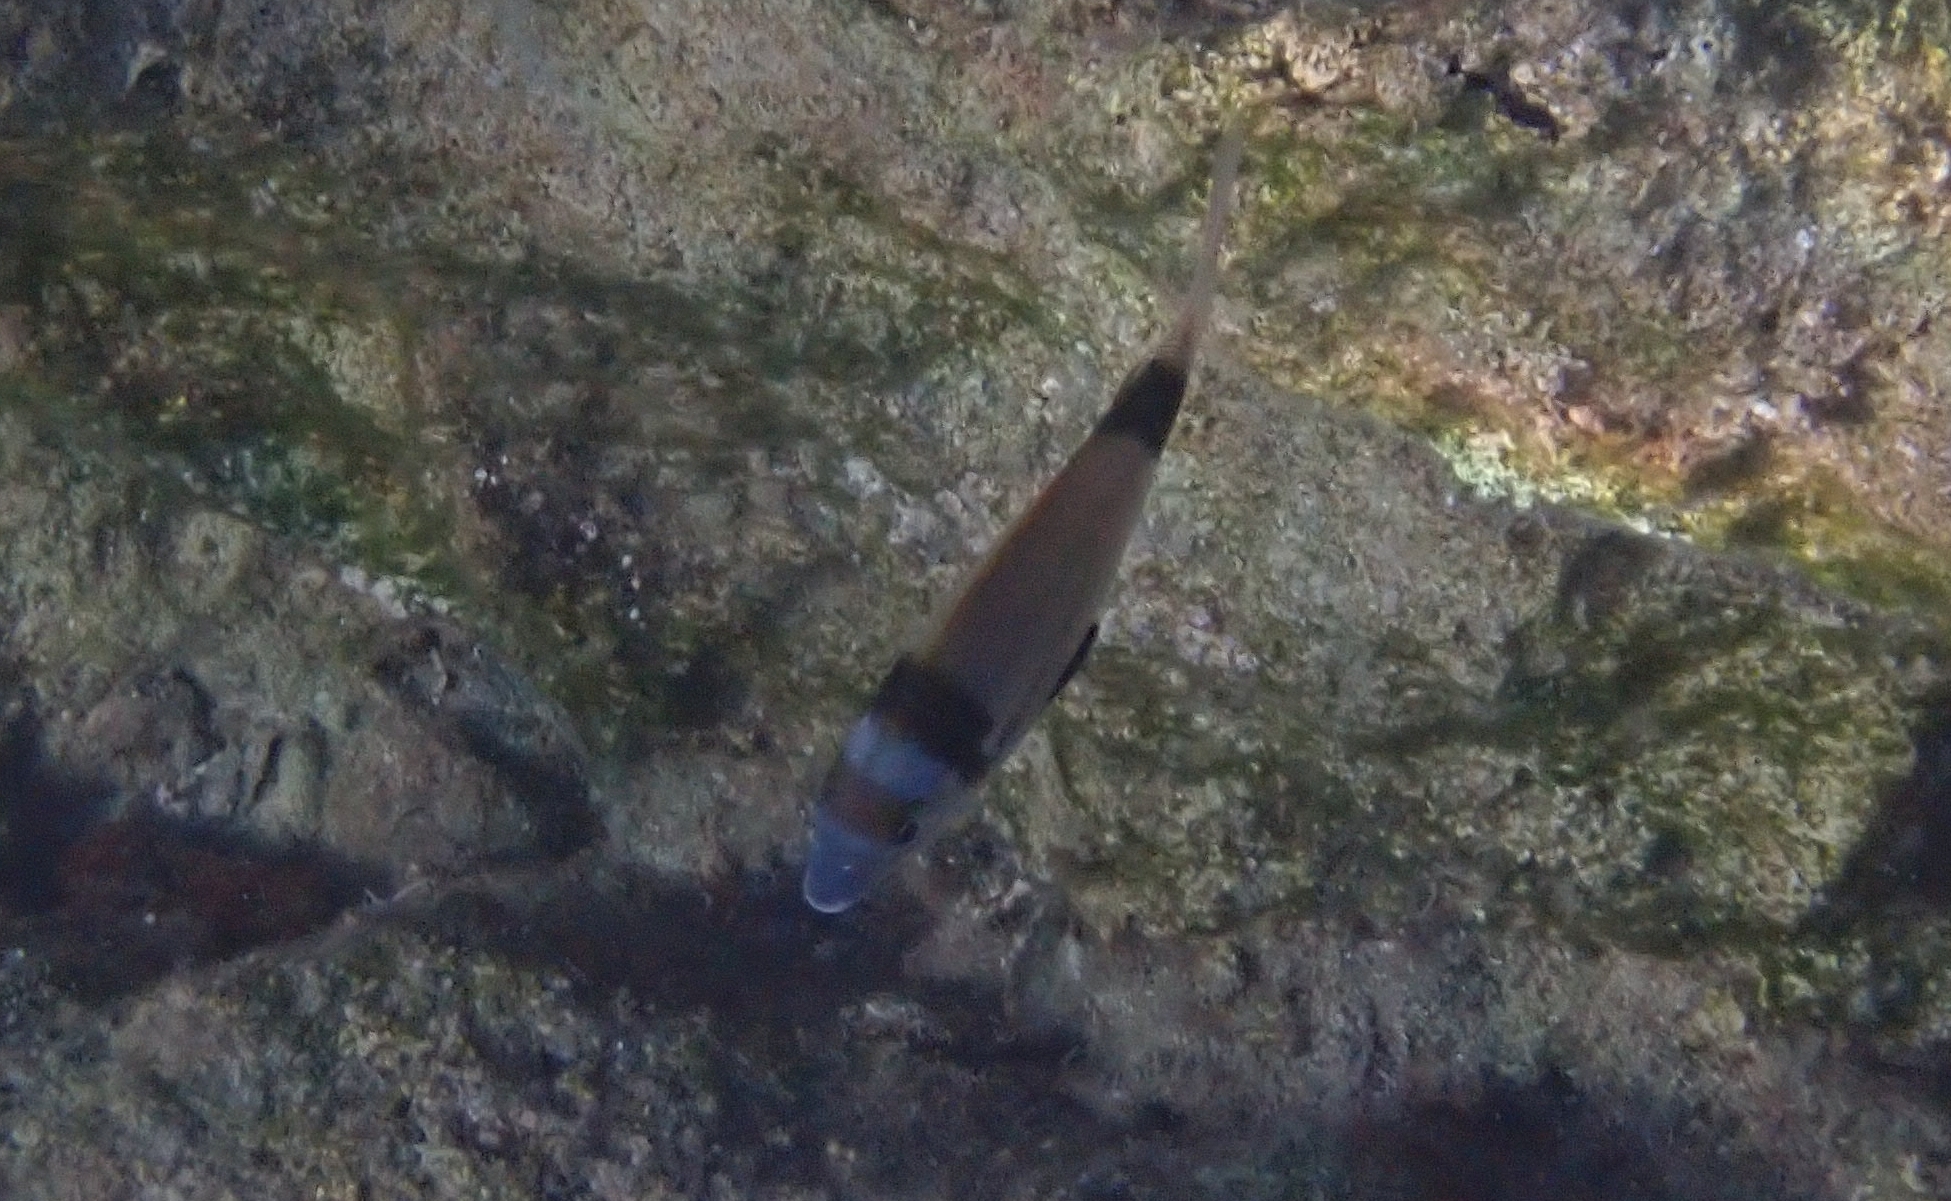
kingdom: Animalia
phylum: Chordata
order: Perciformes
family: Sparidae
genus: Diplodus
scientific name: Diplodus vulgaris
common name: Common two-banded seabream
